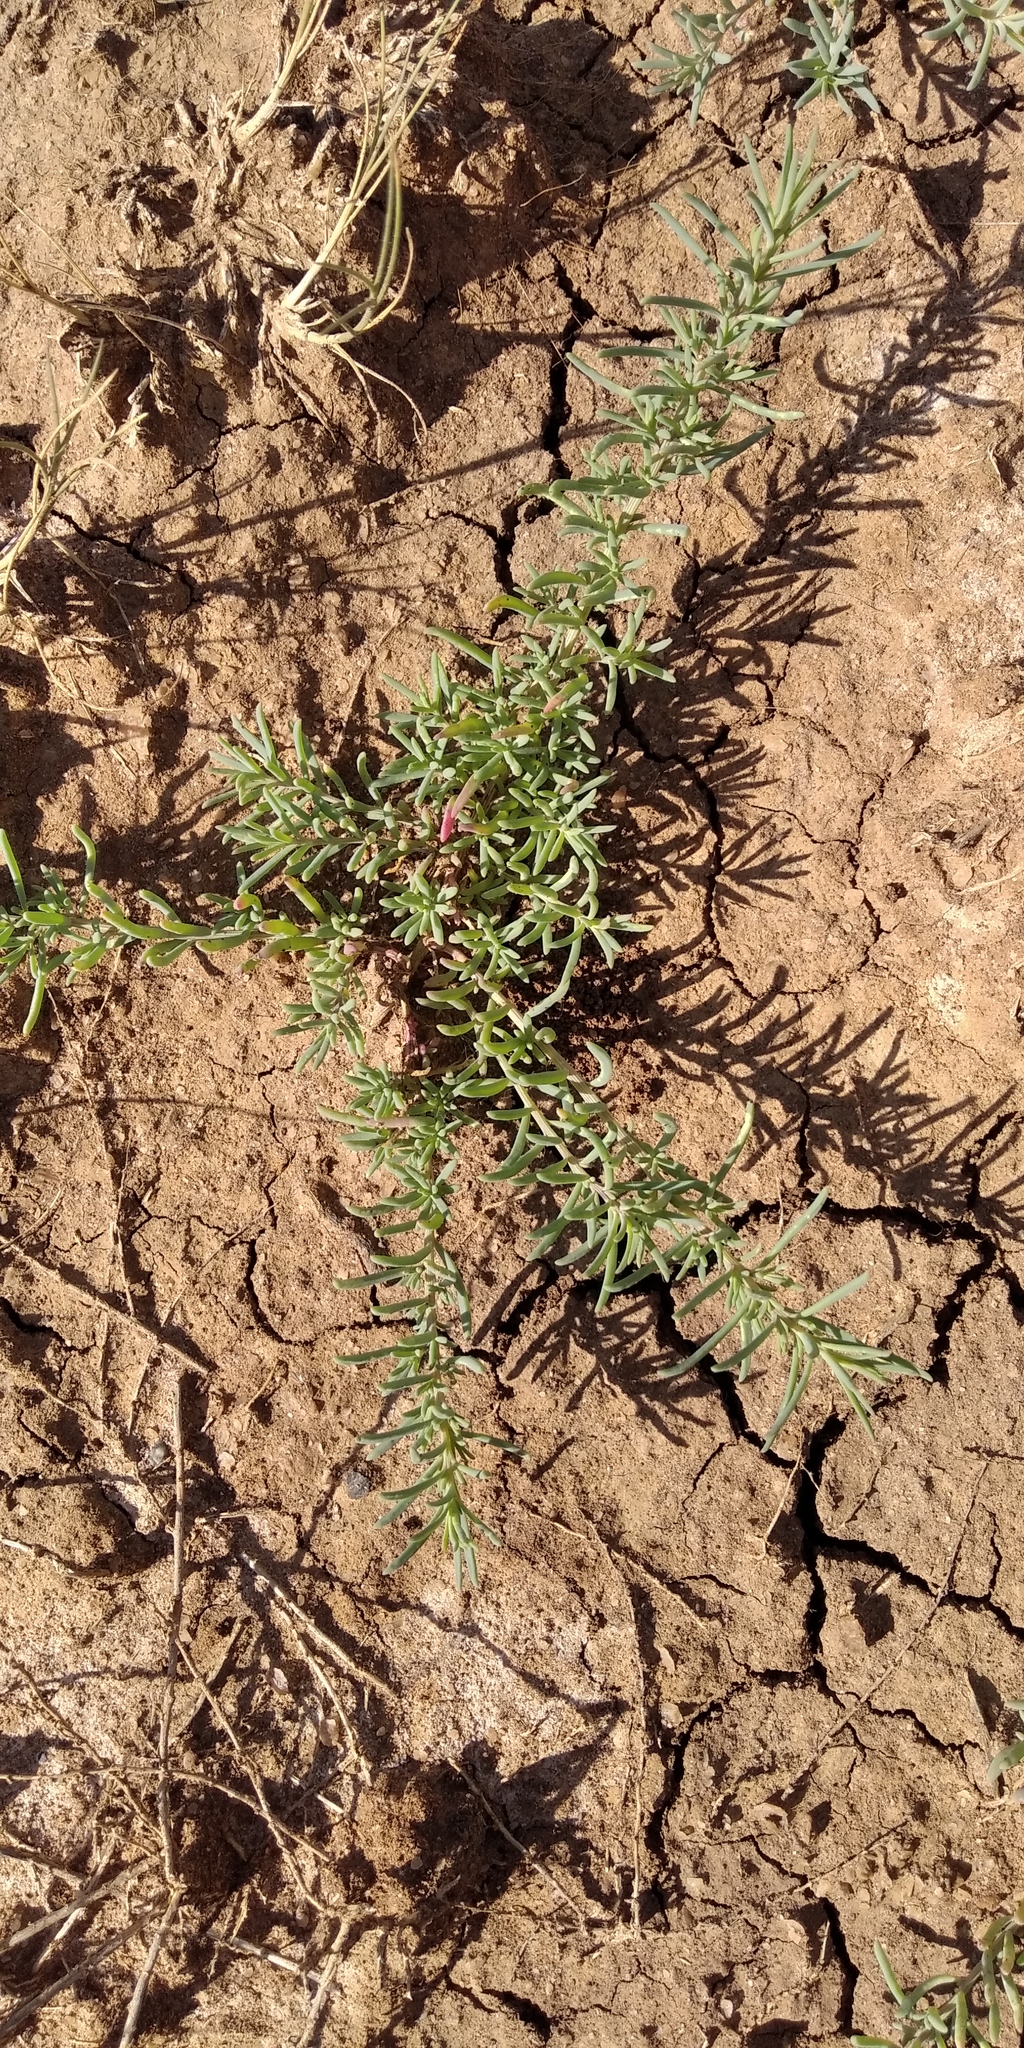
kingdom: Plantae
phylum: Tracheophyta
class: Magnoliopsida
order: Caryophyllales
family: Amaranthaceae
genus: Suaeda
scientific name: Suaeda prostrata
